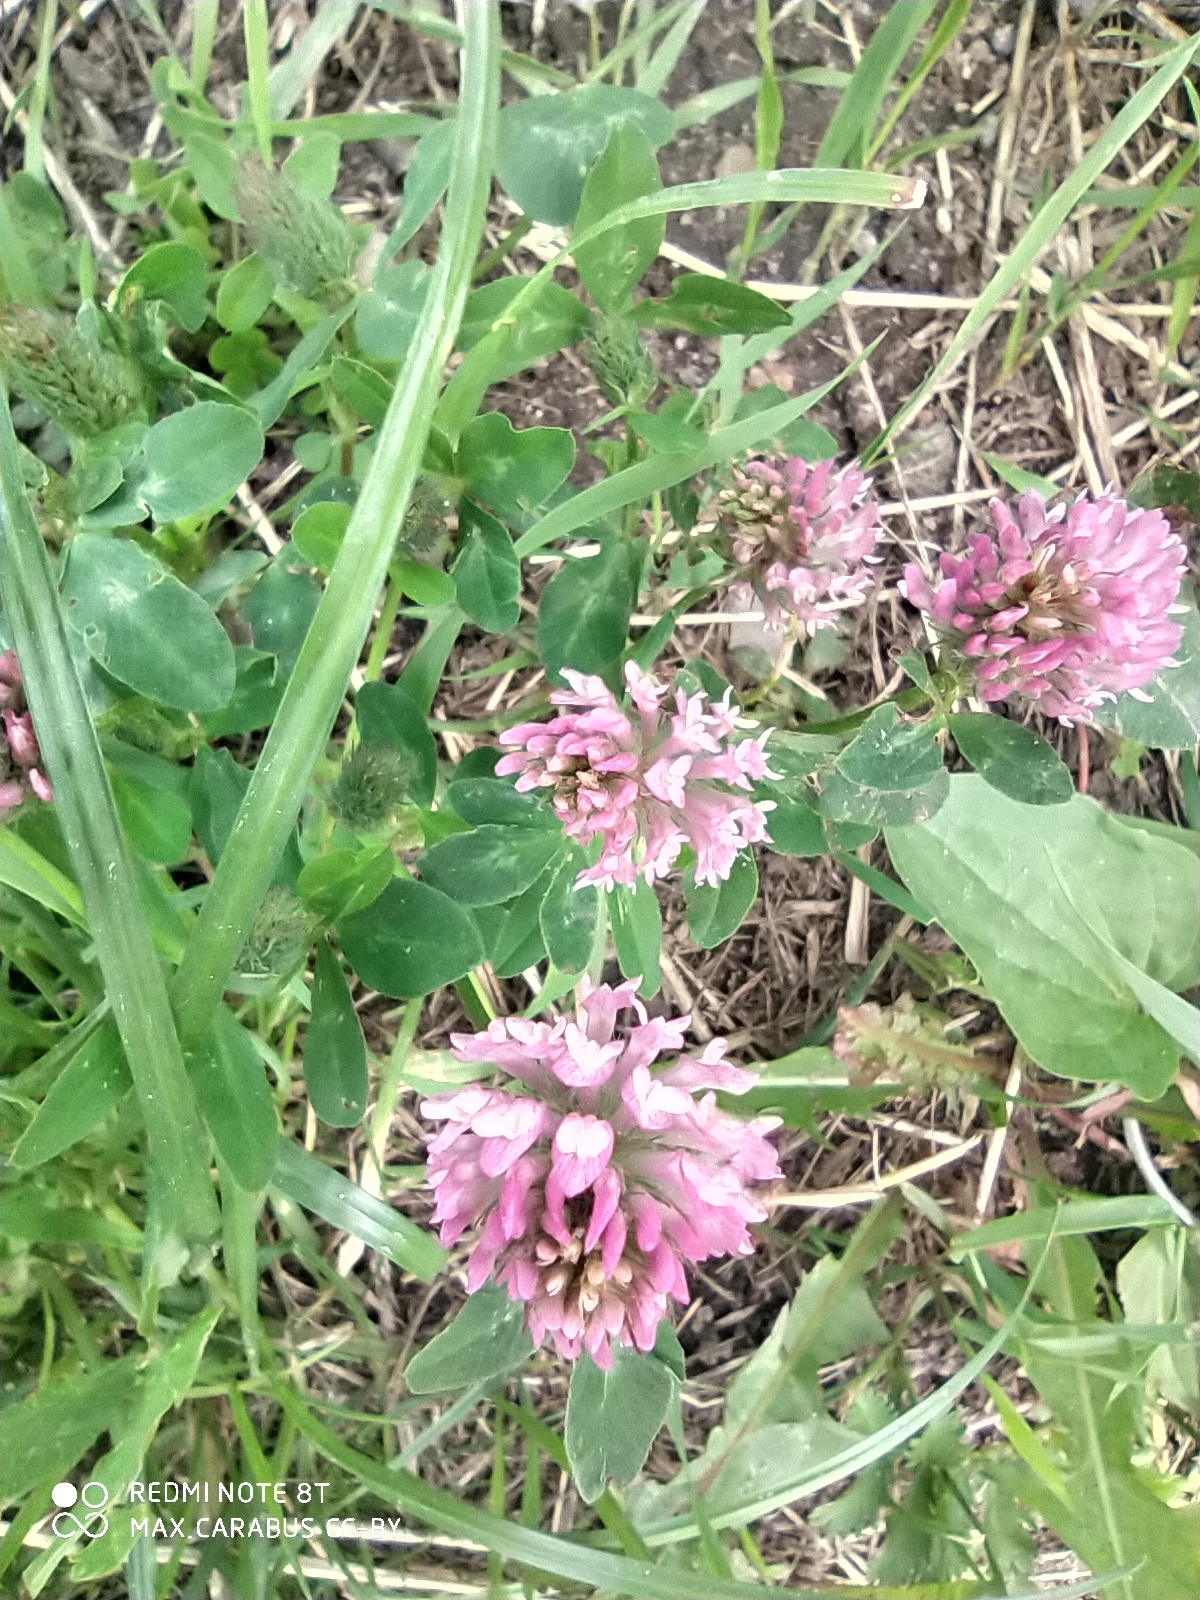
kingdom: Plantae
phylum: Tracheophyta
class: Magnoliopsida
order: Fabales
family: Fabaceae
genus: Trifolium
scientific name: Trifolium pratense
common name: Red clover
